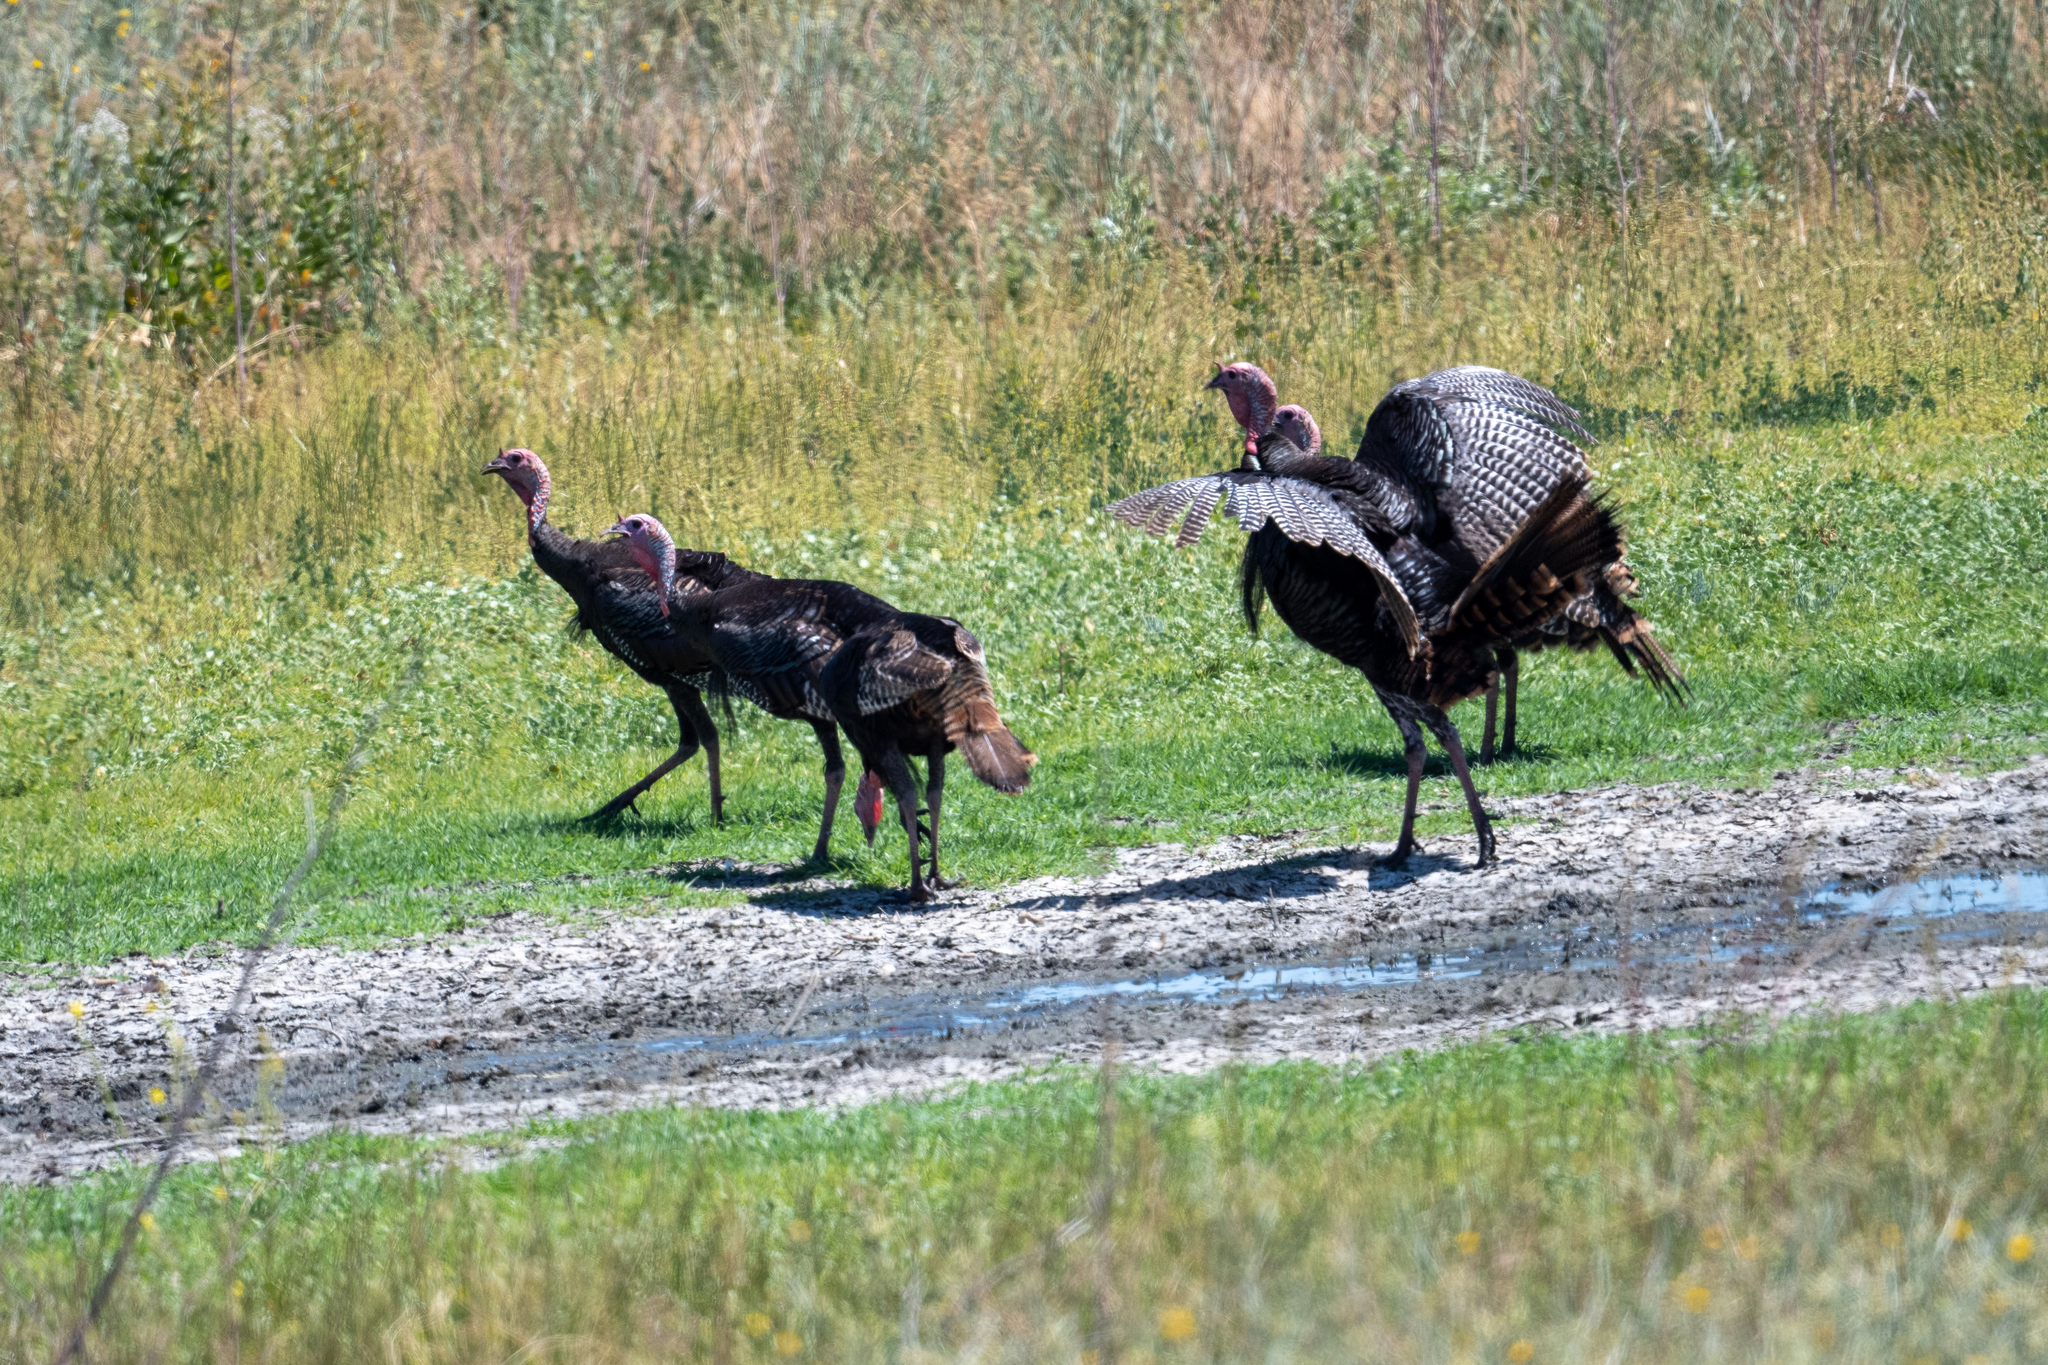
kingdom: Animalia
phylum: Chordata
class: Aves
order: Galliformes
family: Phasianidae
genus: Meleagris
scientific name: Meleagris gallopavo
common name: Wild turkey
